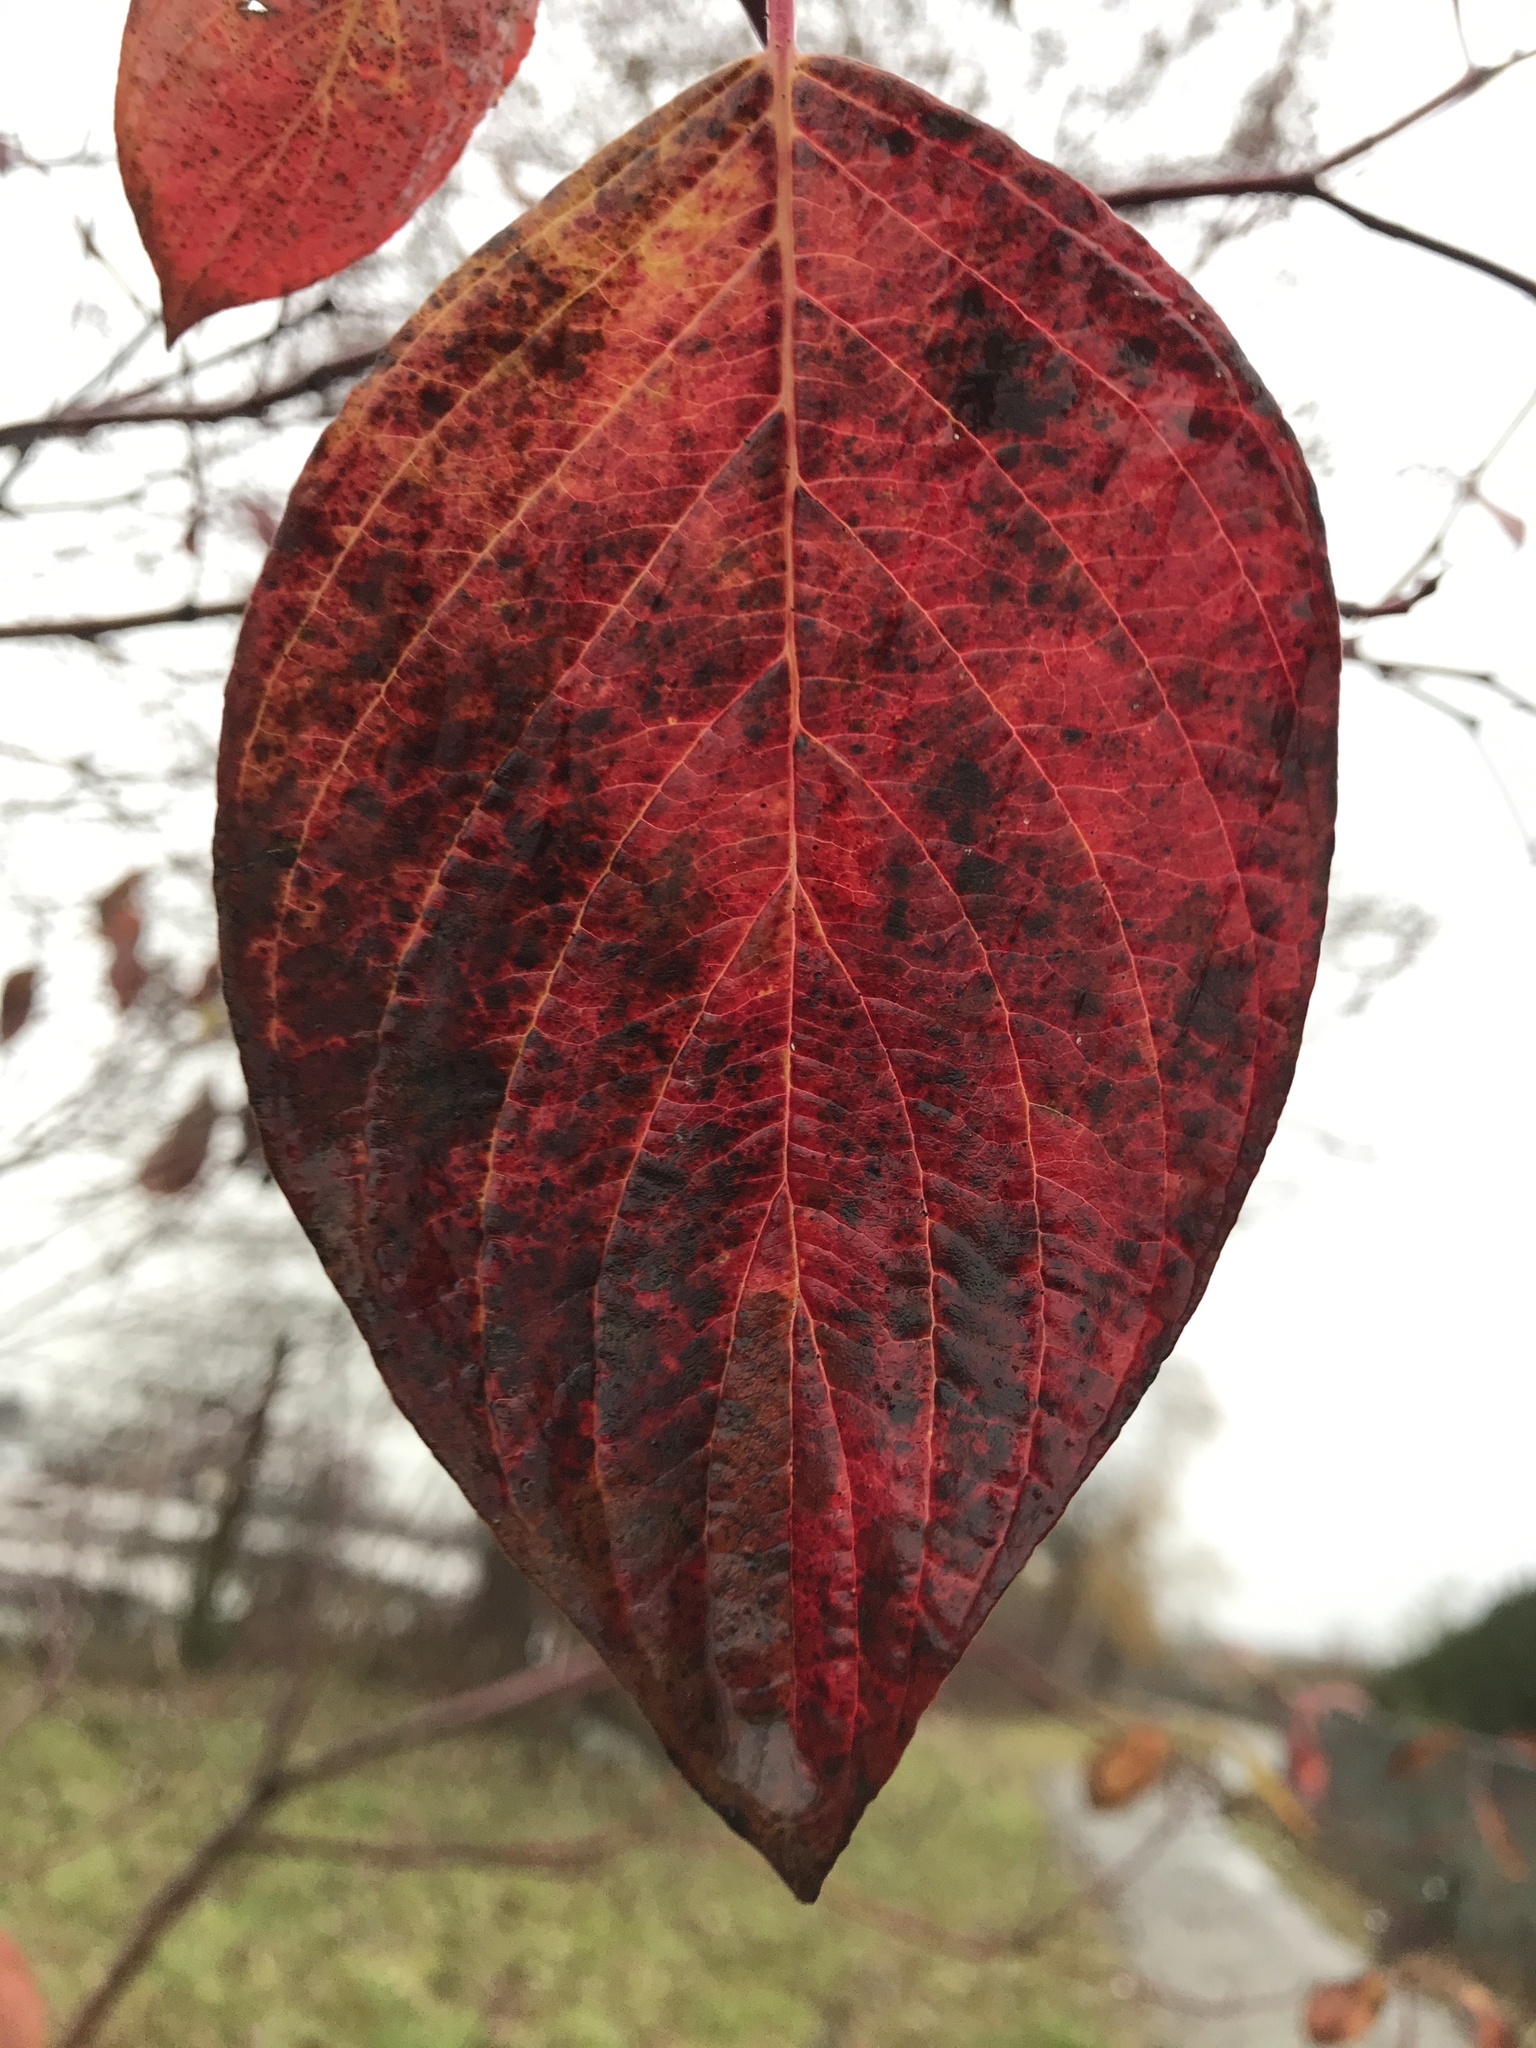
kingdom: Plantae
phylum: Tracheophyta
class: Magnoliopsida
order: Cornales
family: Cornaceae
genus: Cornus
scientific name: Cornus sericea
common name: Red-osier dogwood
